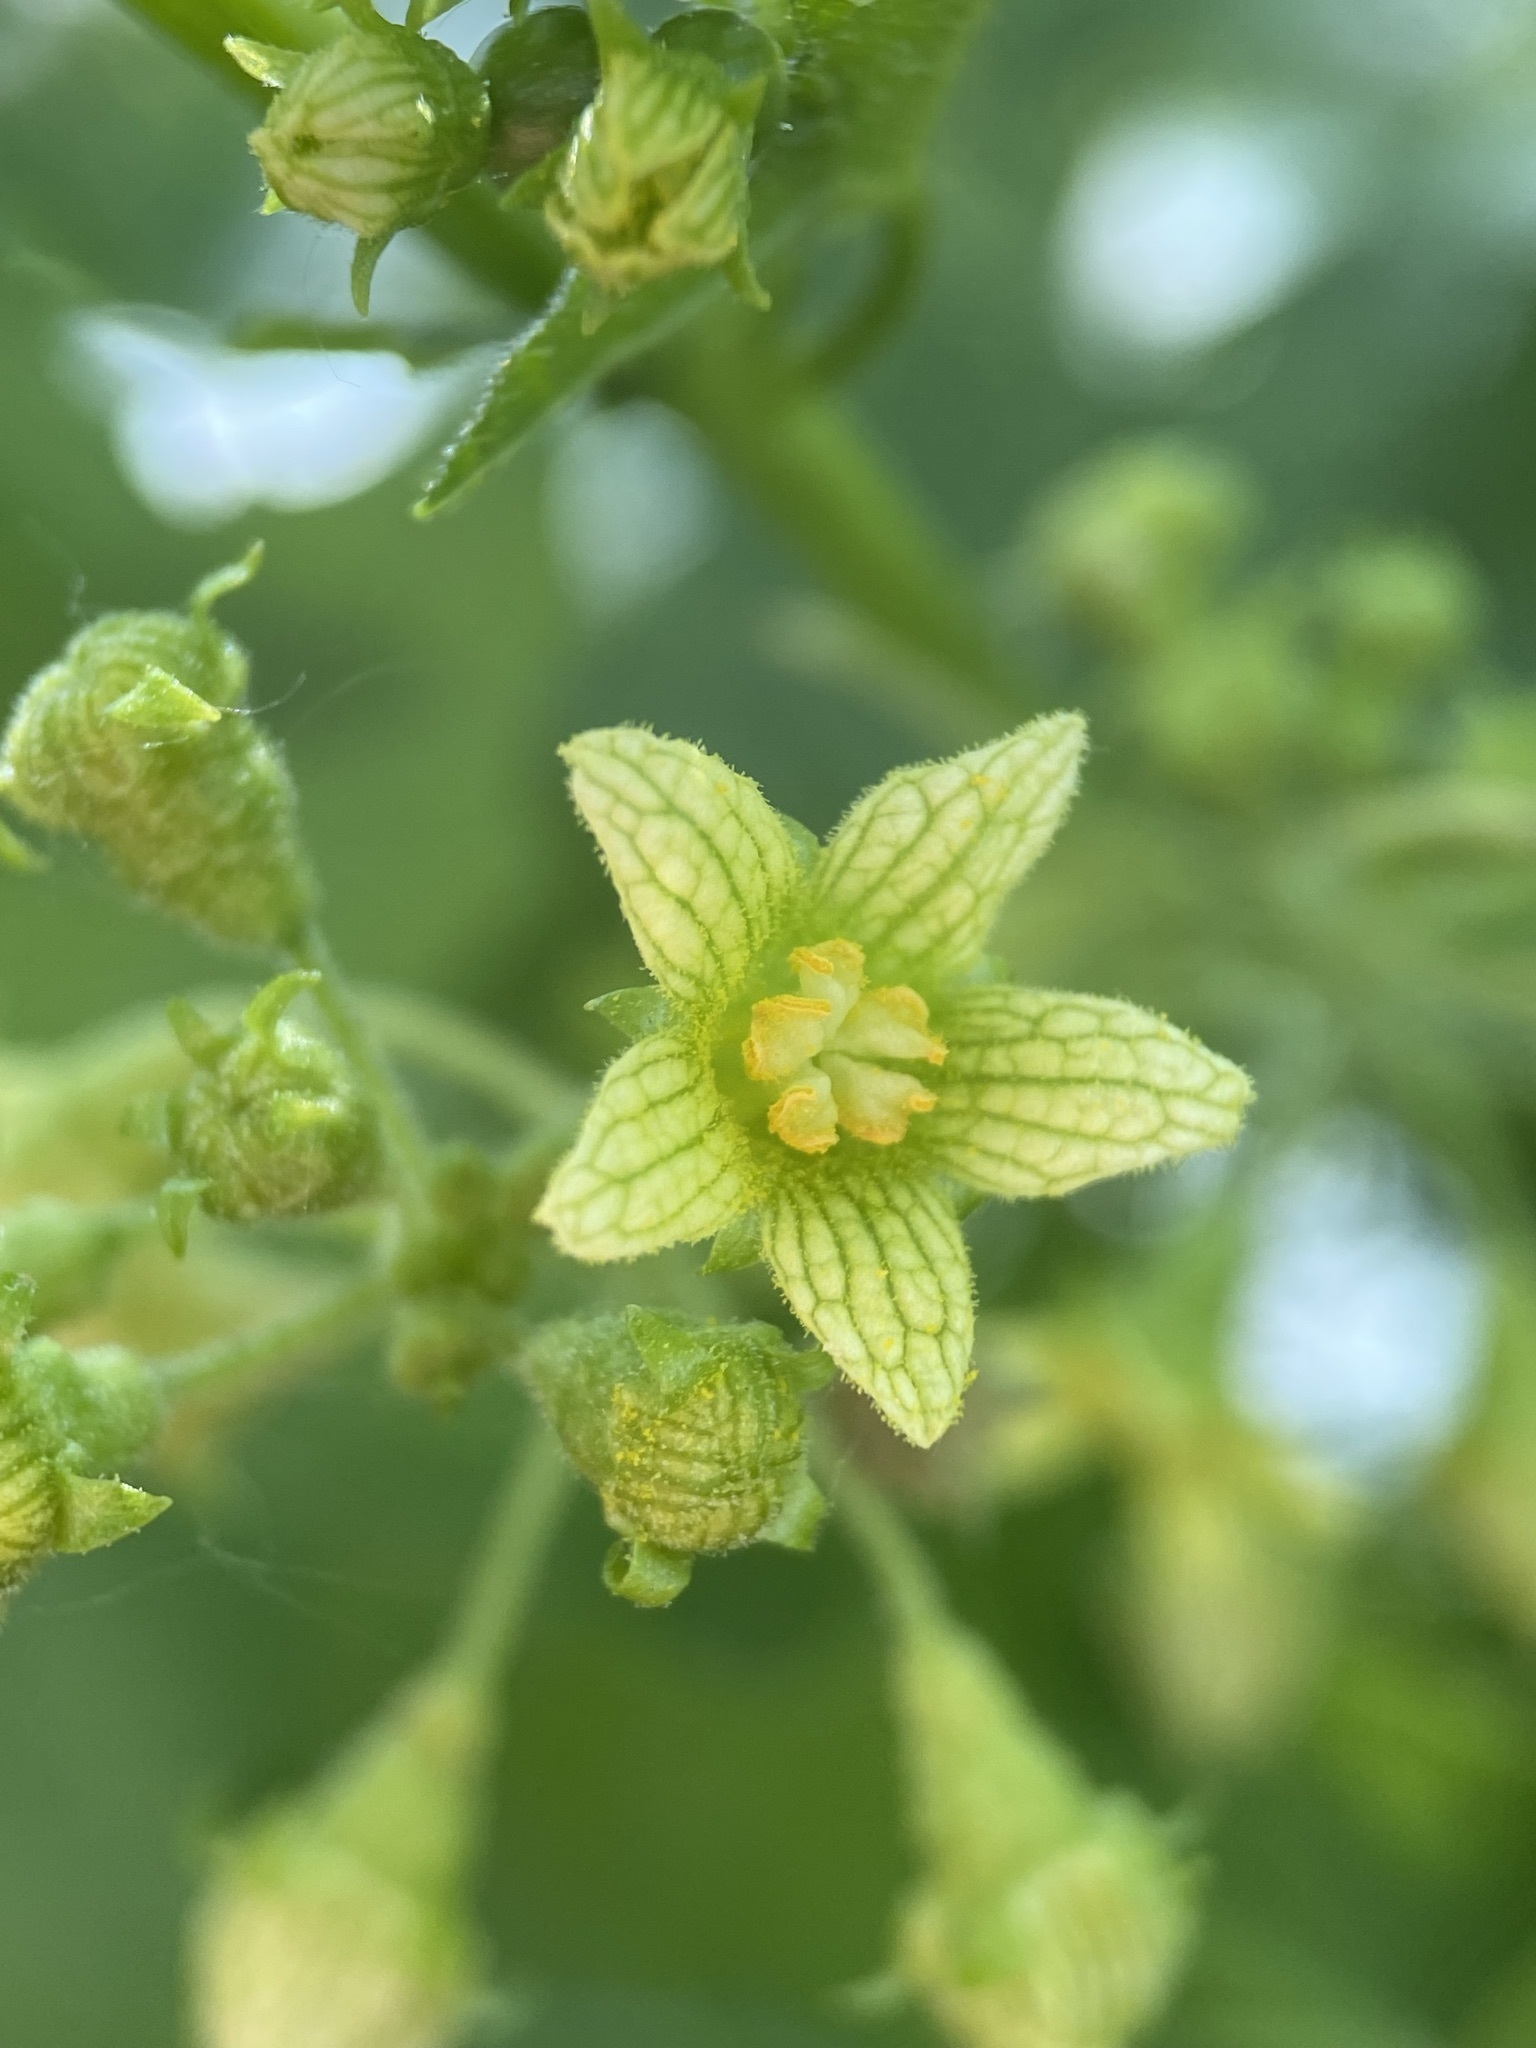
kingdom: Plantae
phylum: Tracheophyta
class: Magnoliopsida
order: Cucurbitales
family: Cucurbitaceae
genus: Bryonia
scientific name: Bryonia alba
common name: White bryony
